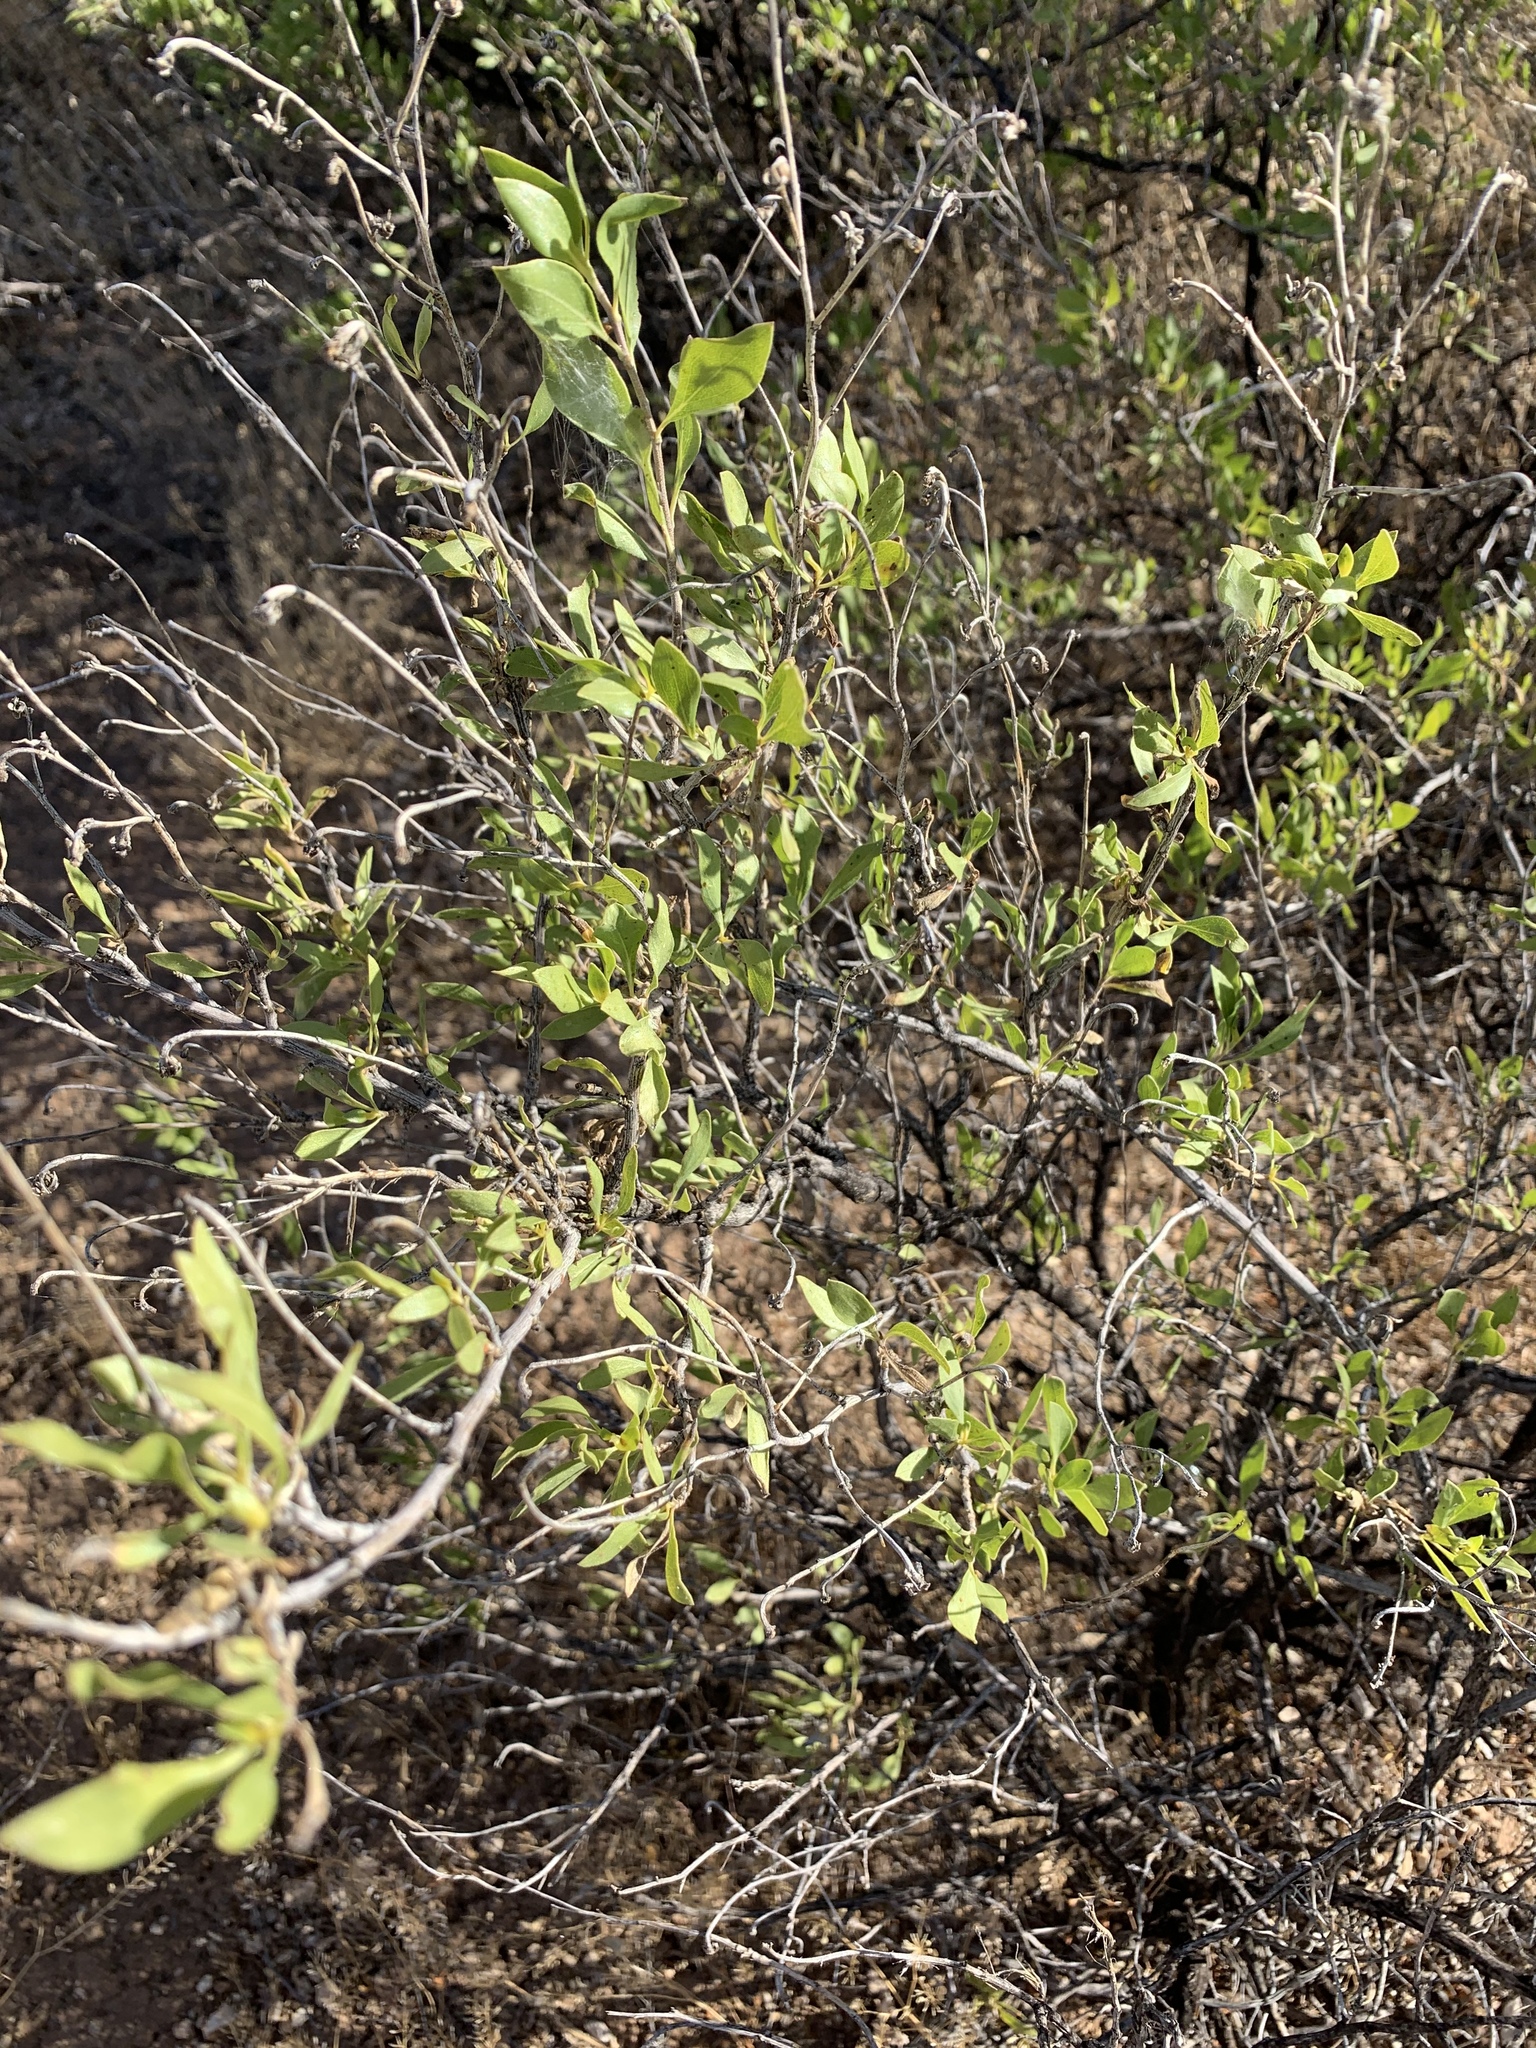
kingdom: Plantae
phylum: Tracheophyta
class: Magnoliopsida
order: Asterales
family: Asteraceae
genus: Flourensia
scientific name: Flourensia cernua
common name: Varnishbush
